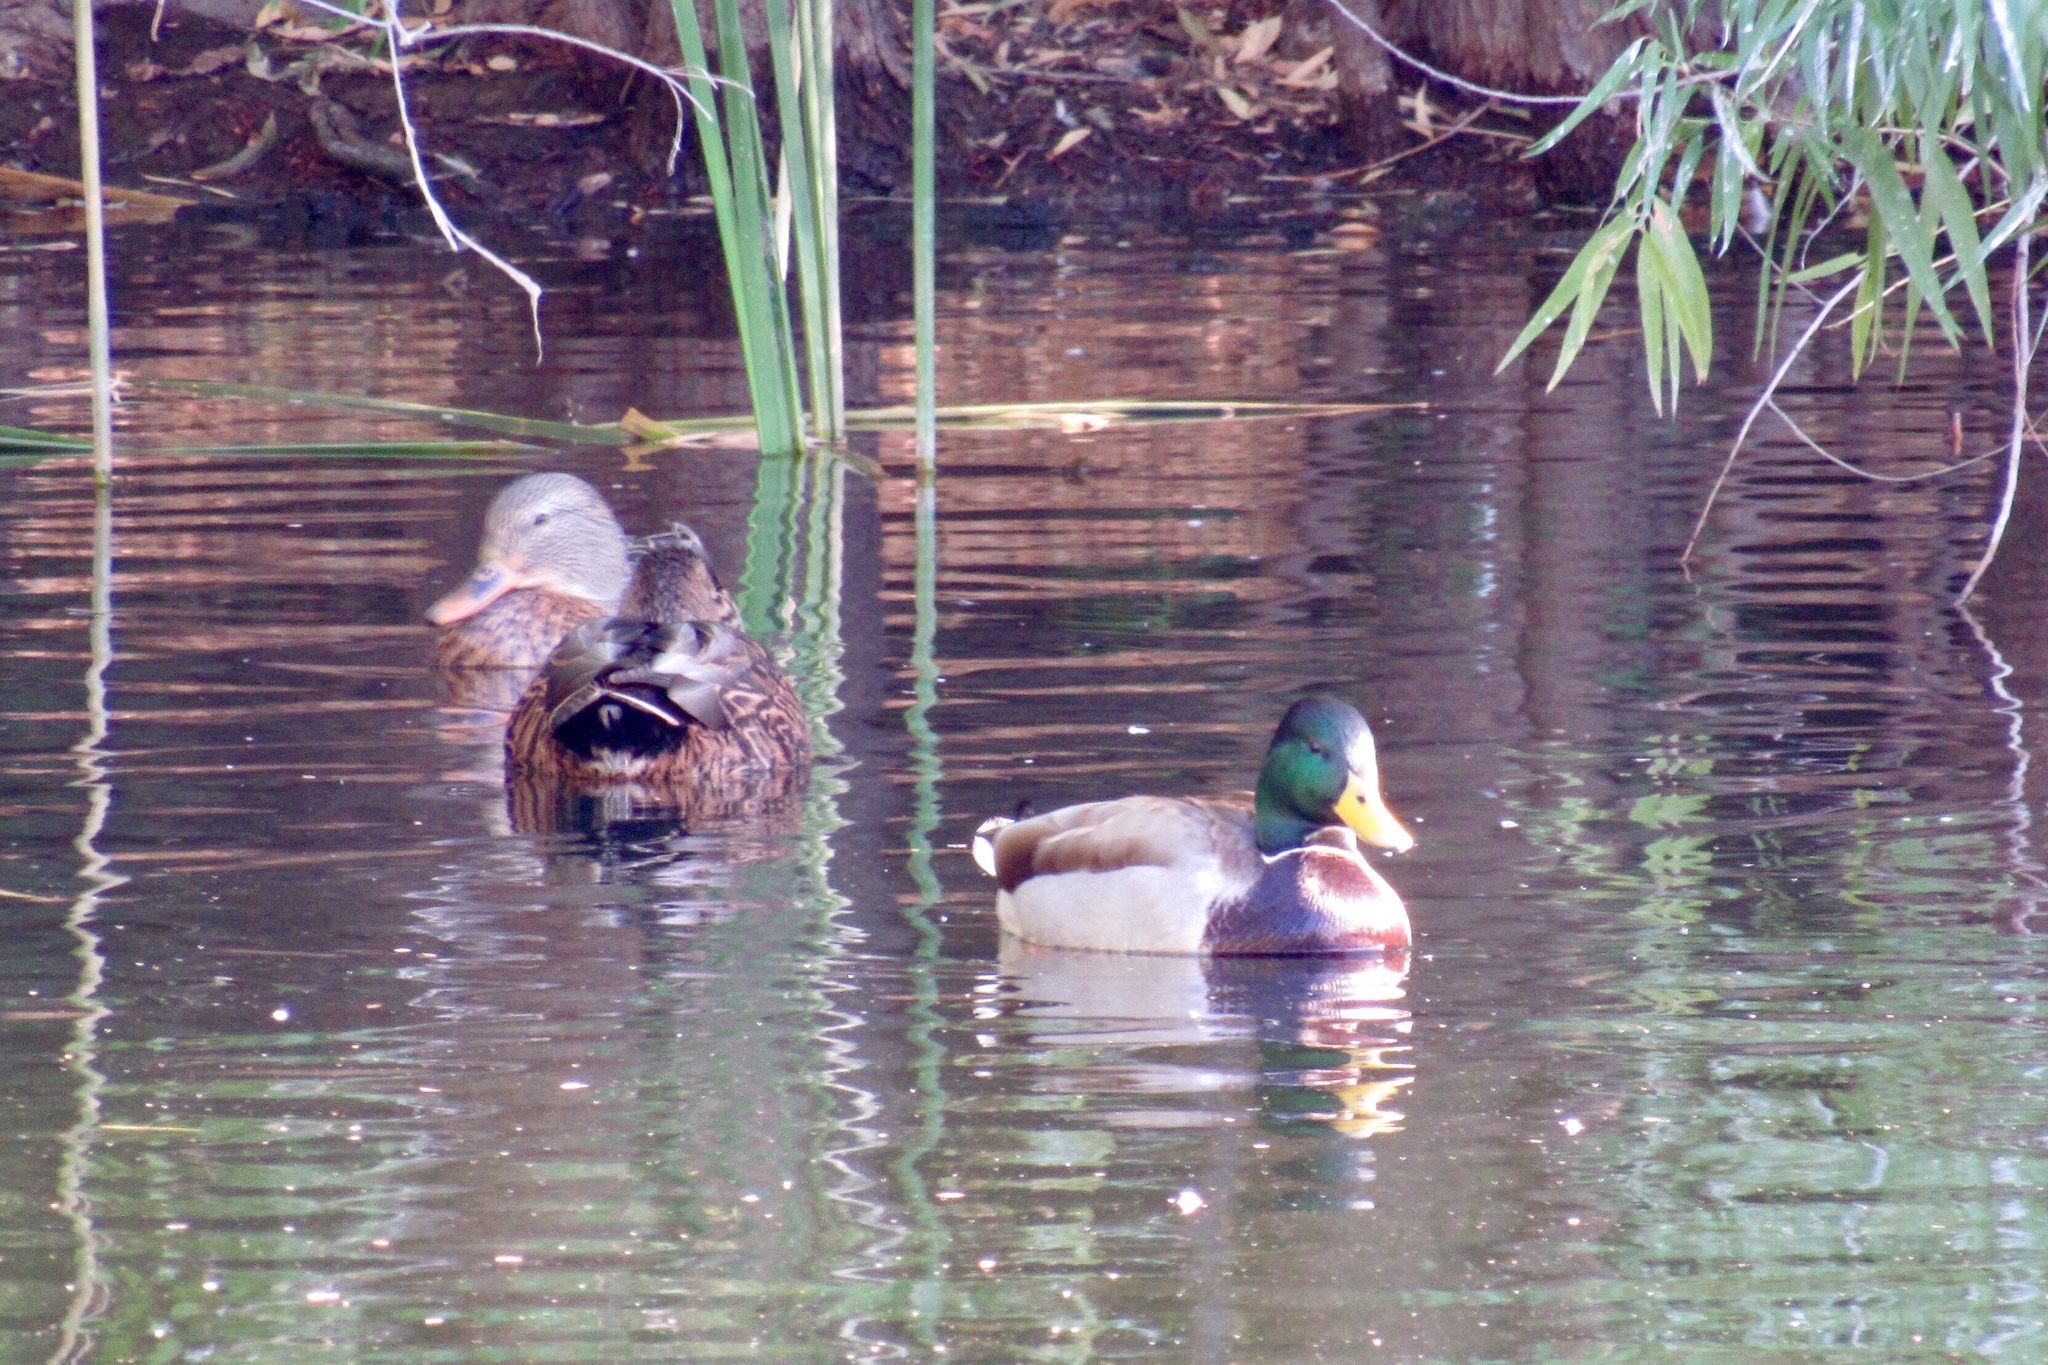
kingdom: Animalia
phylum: Chordata
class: Aves
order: Anseriformes
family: Anatidae
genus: Anas
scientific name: Anas platyrhynchos
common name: Mallard
